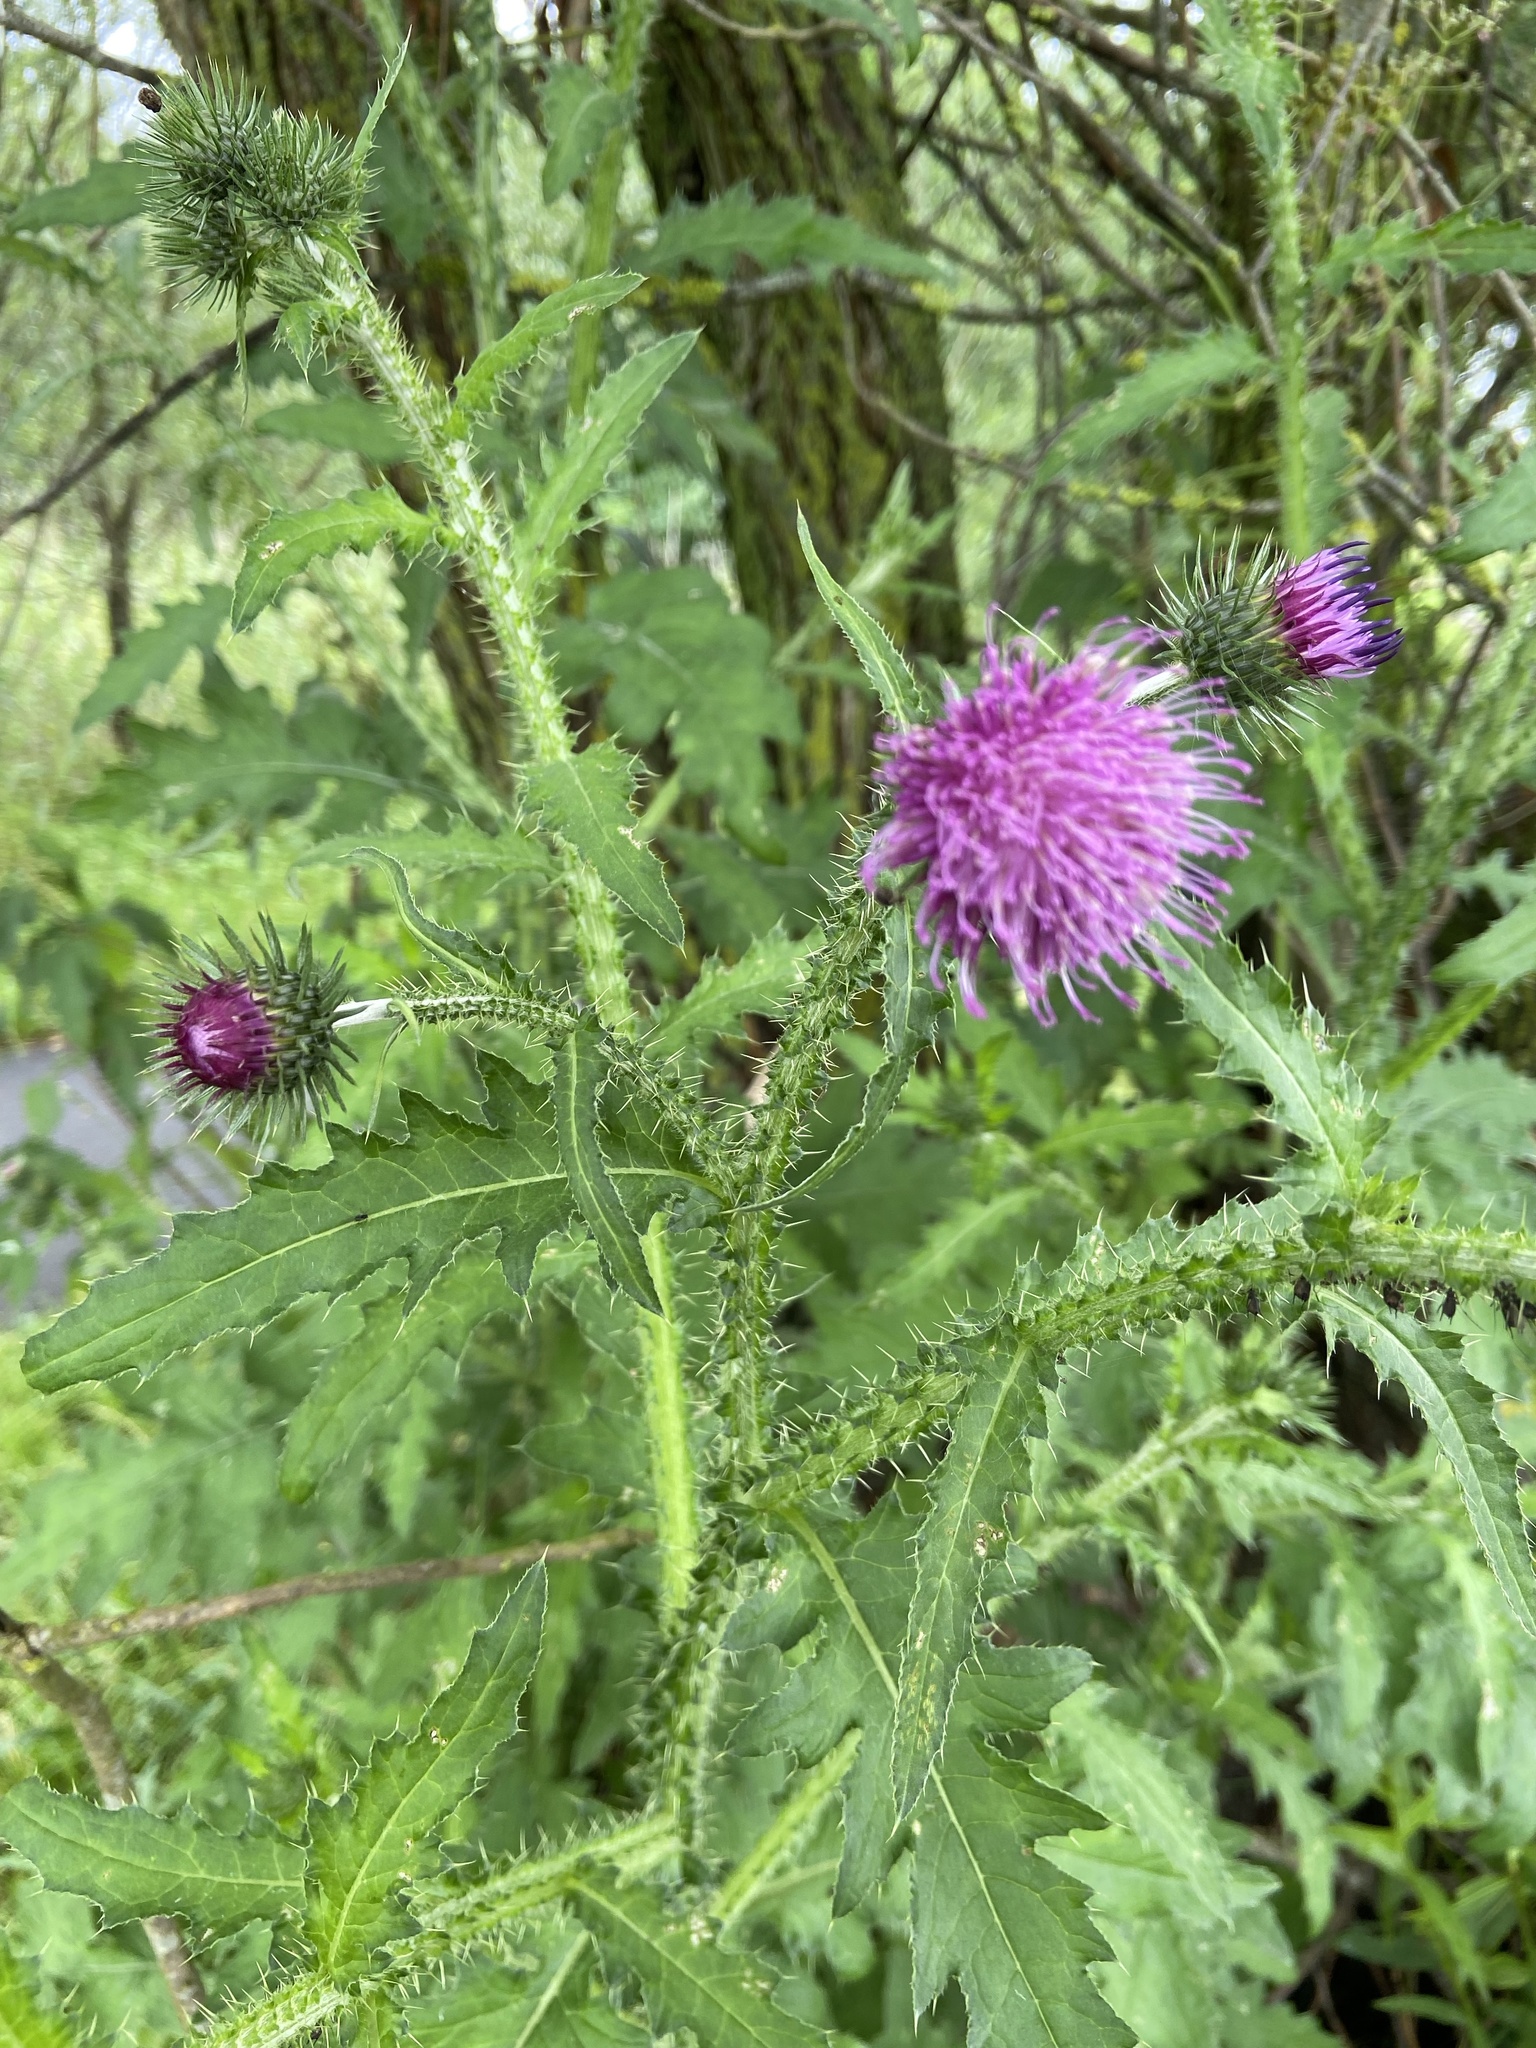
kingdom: Plantae
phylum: Tracheophyta
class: Magnoliopsida
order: Asterales
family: Asteraceae
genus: Carduus
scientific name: Carduus crispus
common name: Welted thistle
